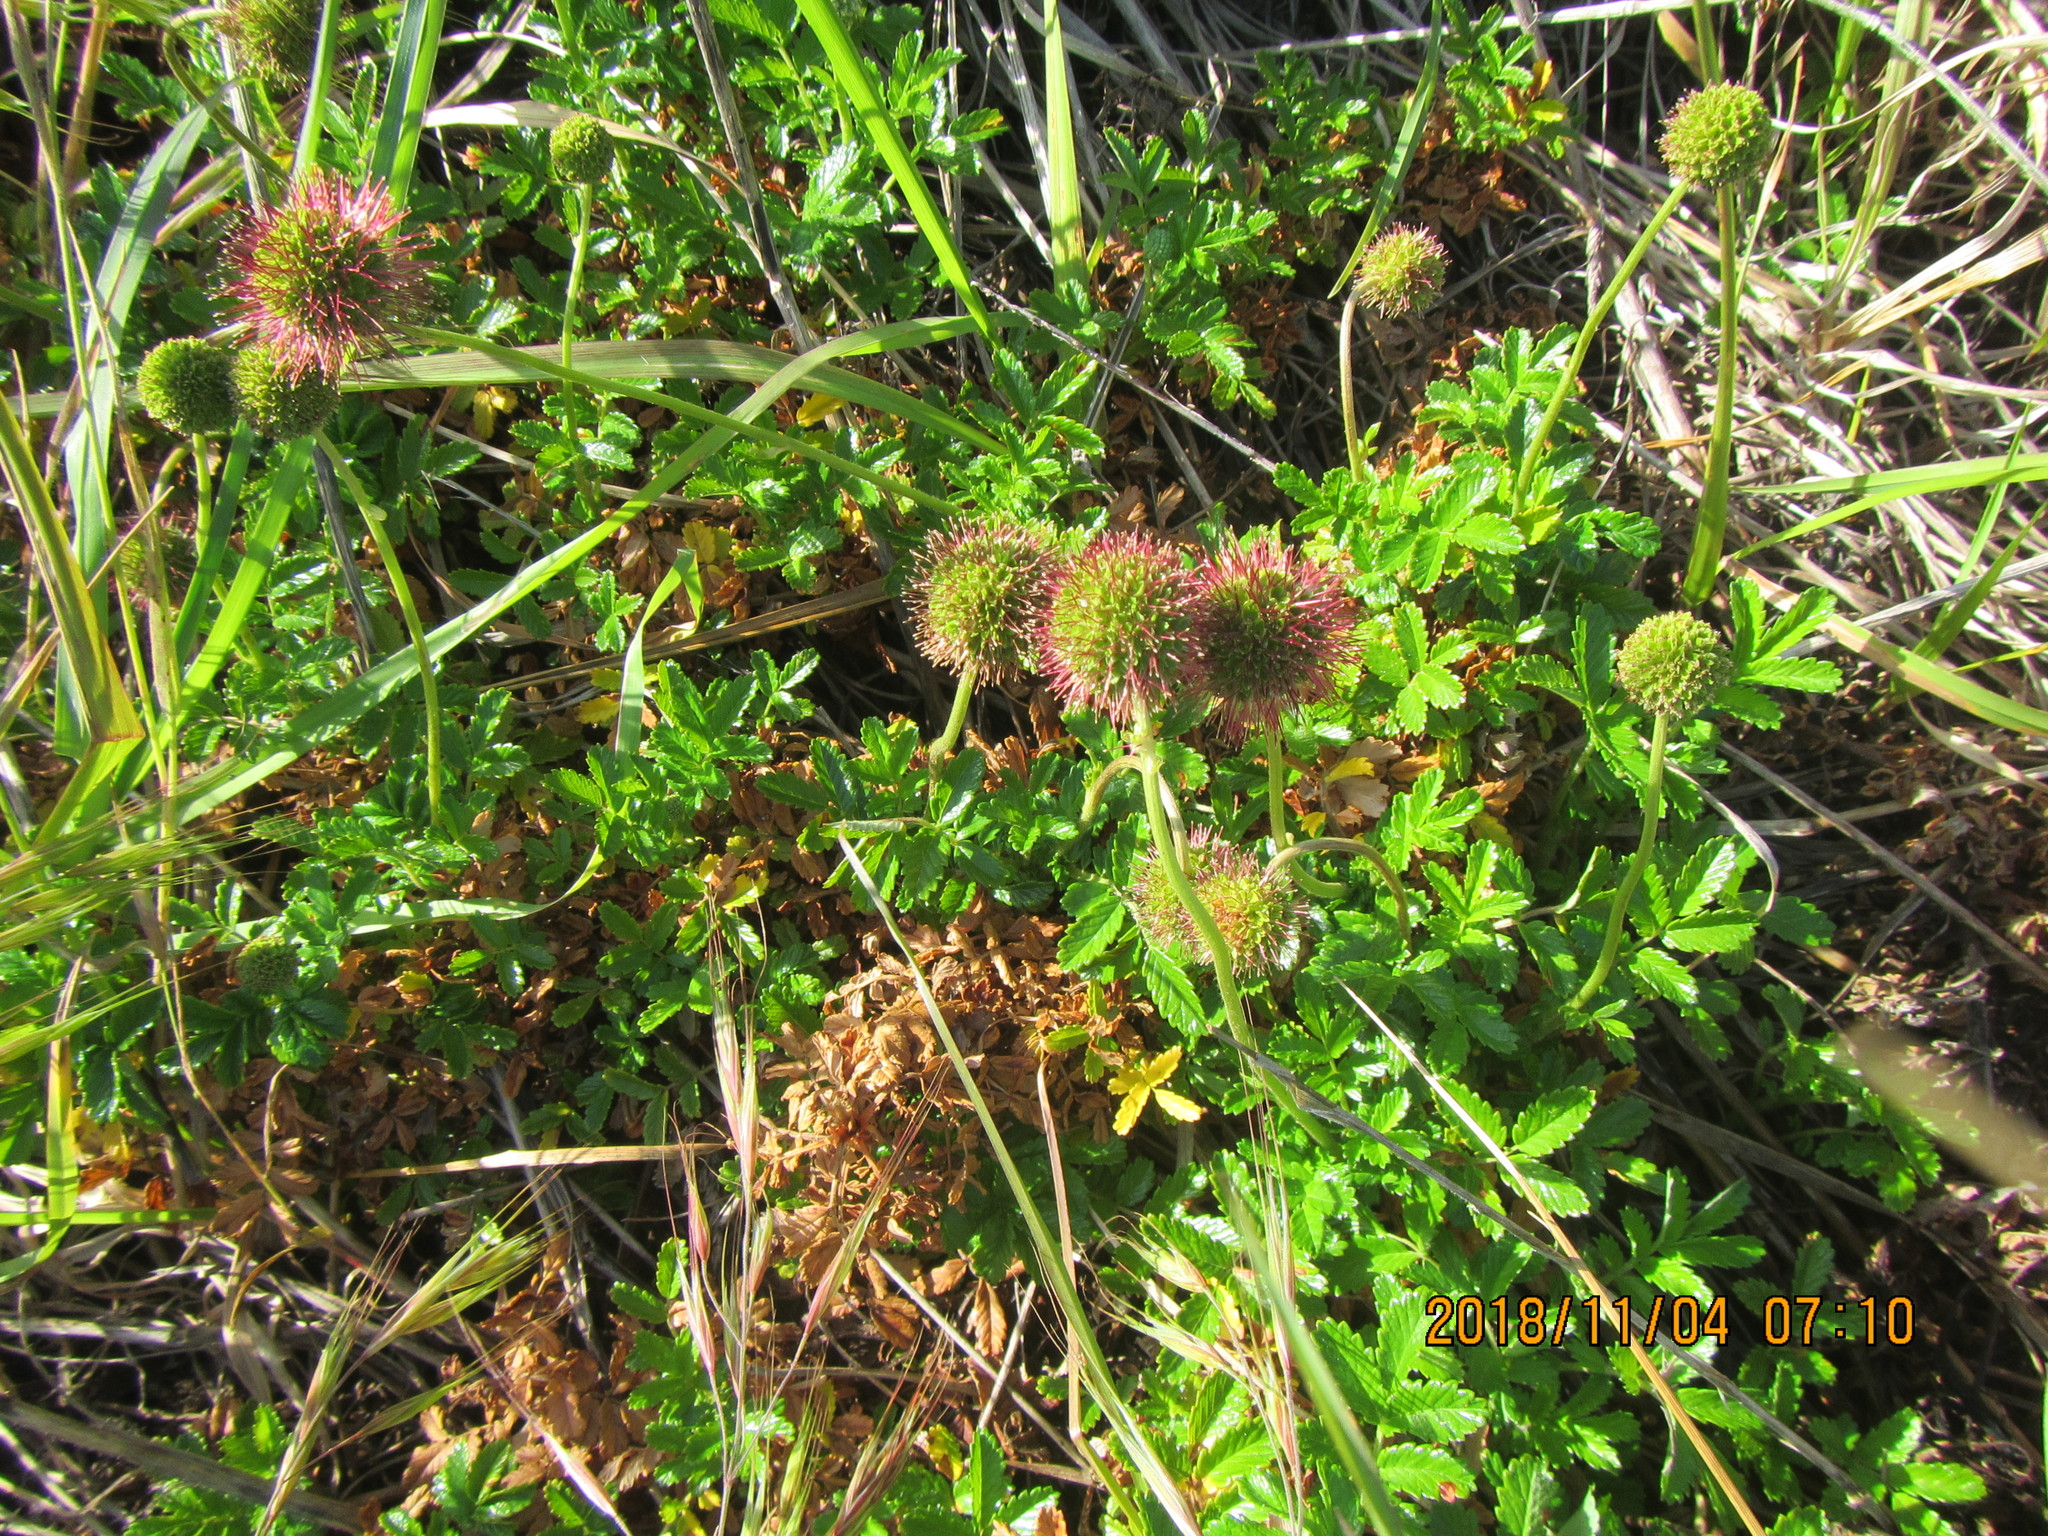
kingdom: Plantae
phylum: Tracheophyta
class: Magnoliopsida
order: Rosales
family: Rosaceae
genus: Acaena
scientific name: Acaena novae-zelandiae
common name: Pirri-pirri-bur
